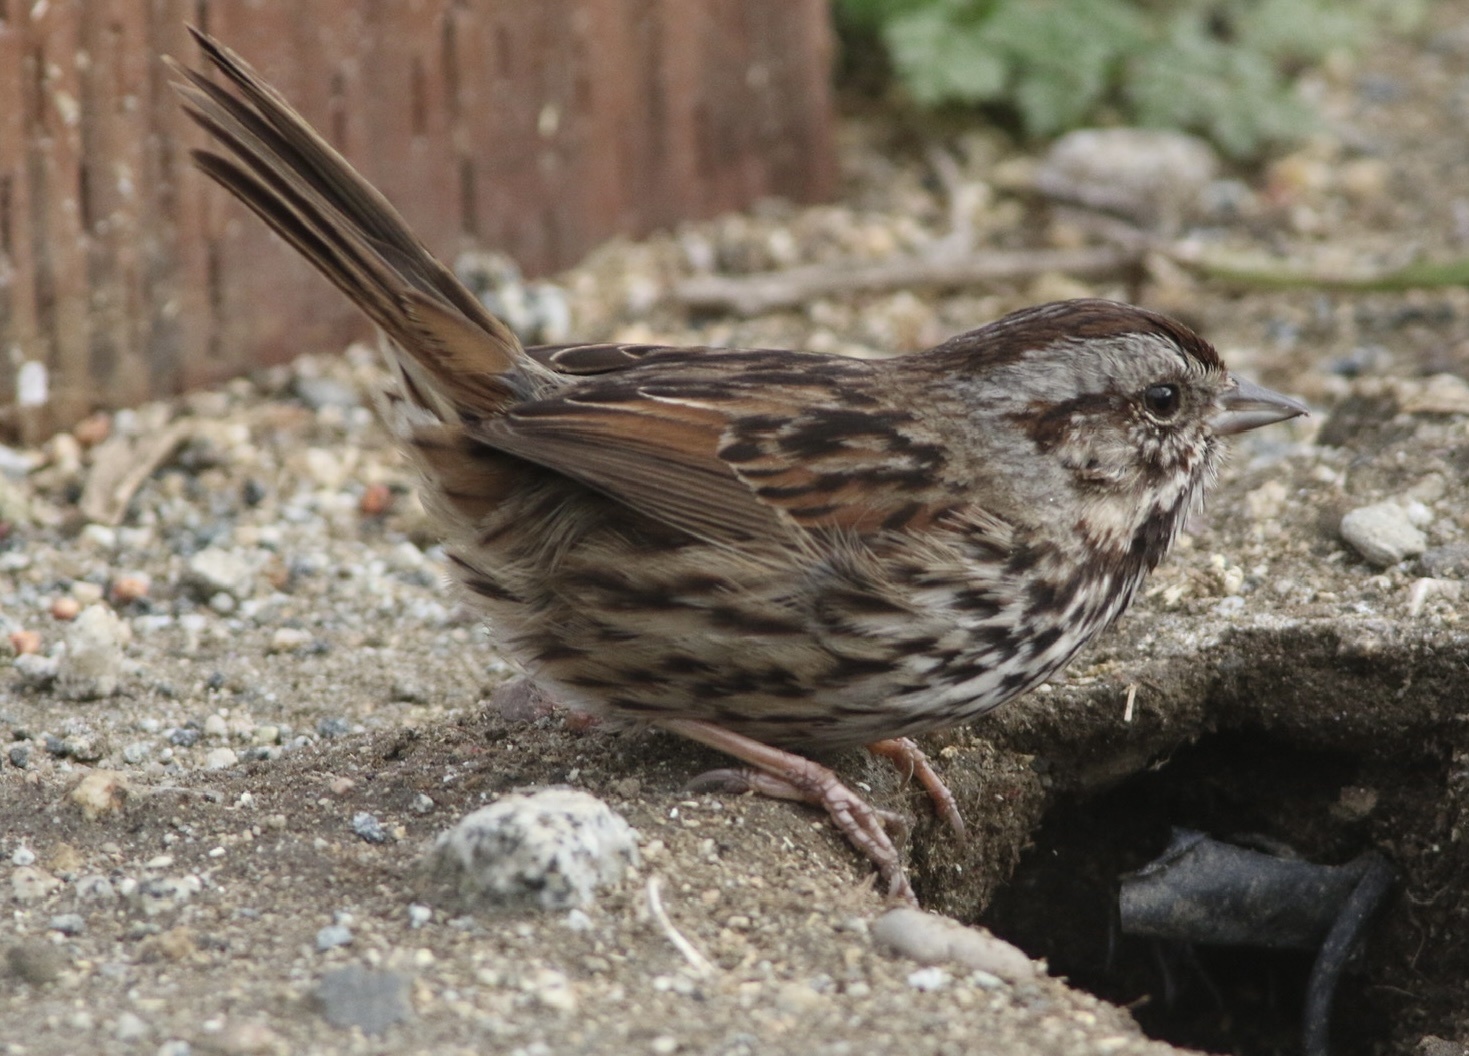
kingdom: Animalia
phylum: Chordata
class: Aves
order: Passeriformes
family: Passerellidae
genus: Melospiza
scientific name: Melospiza melodia
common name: Song sparrow
